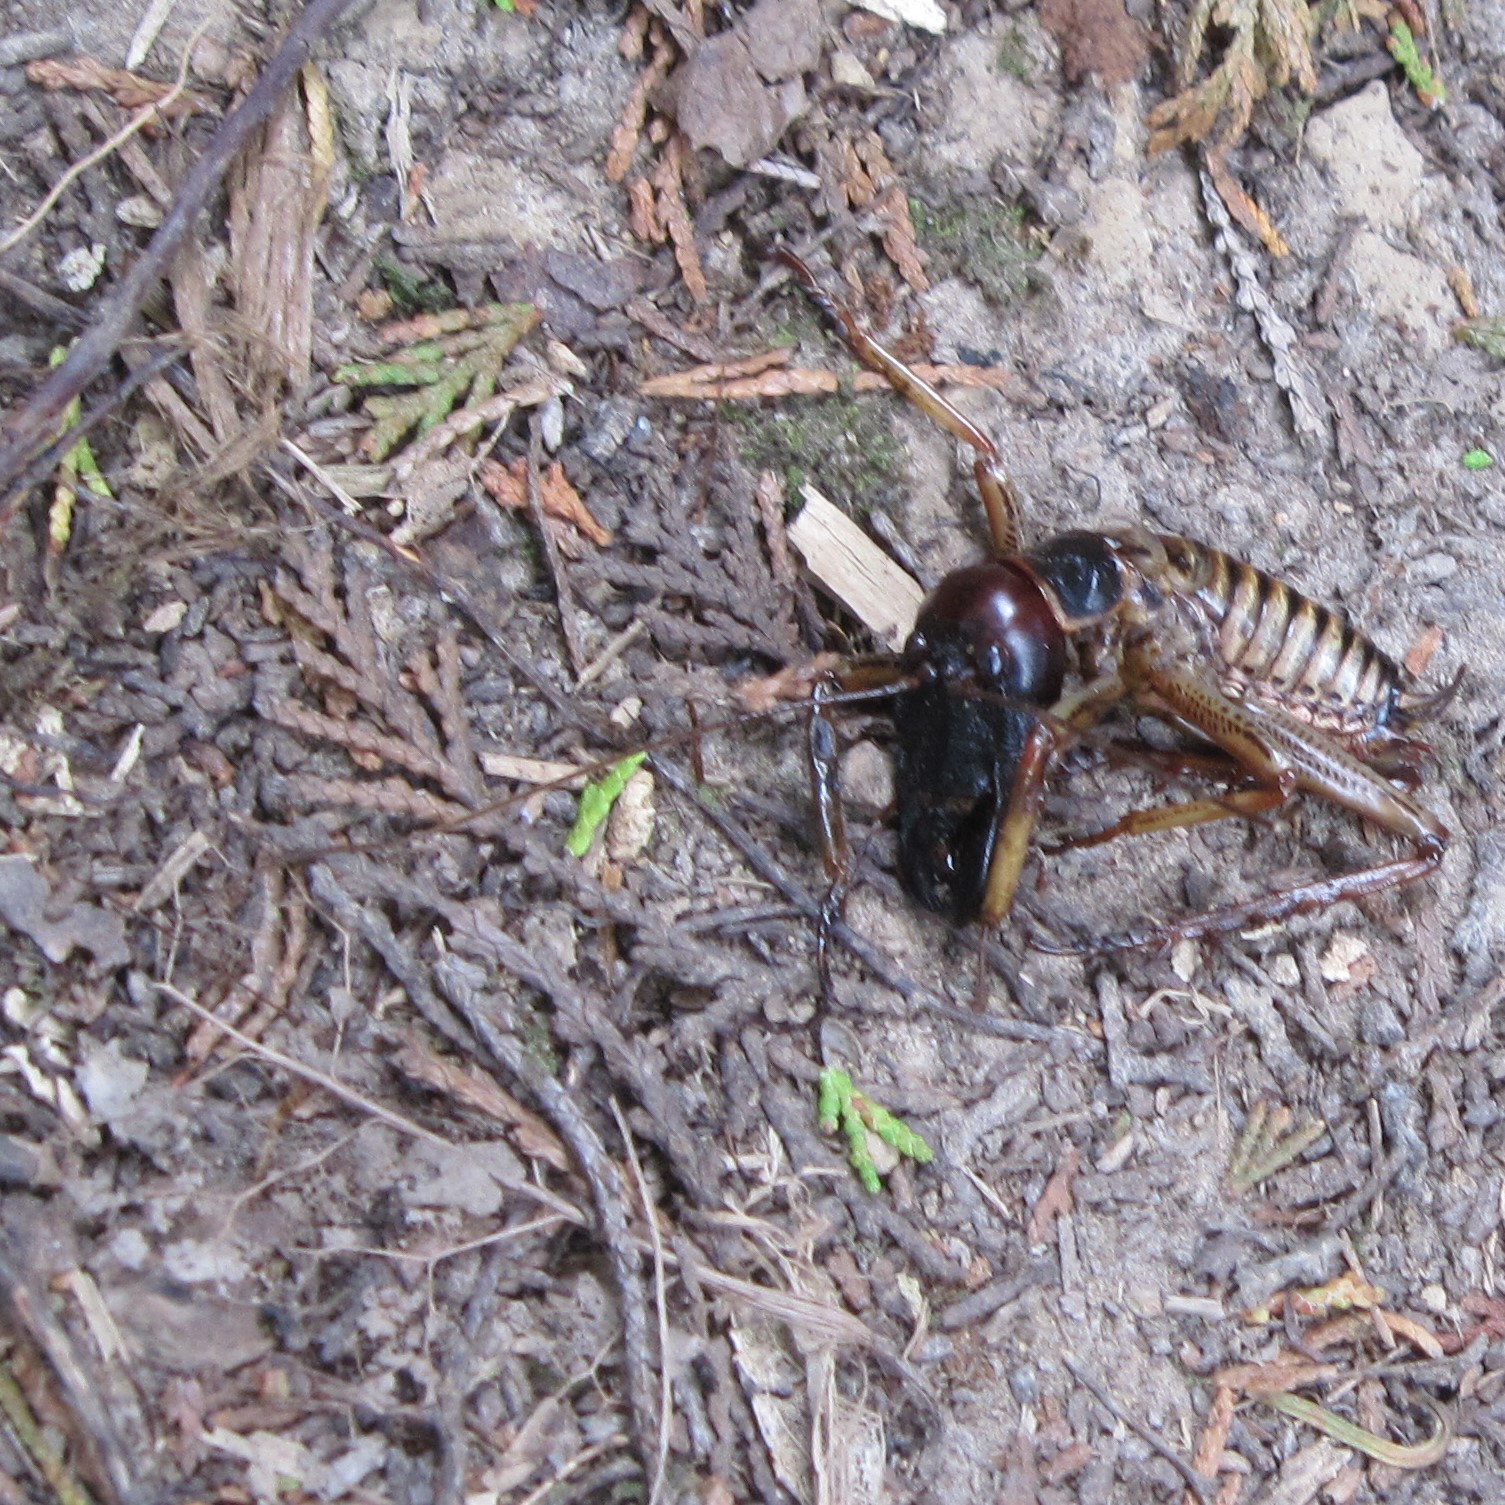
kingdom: Animalia
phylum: Arthropoda
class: Insecta
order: Orthoptera
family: Anostostomatidae
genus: Hemideina
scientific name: Hemideina crassidens
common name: Wellington tree weta
